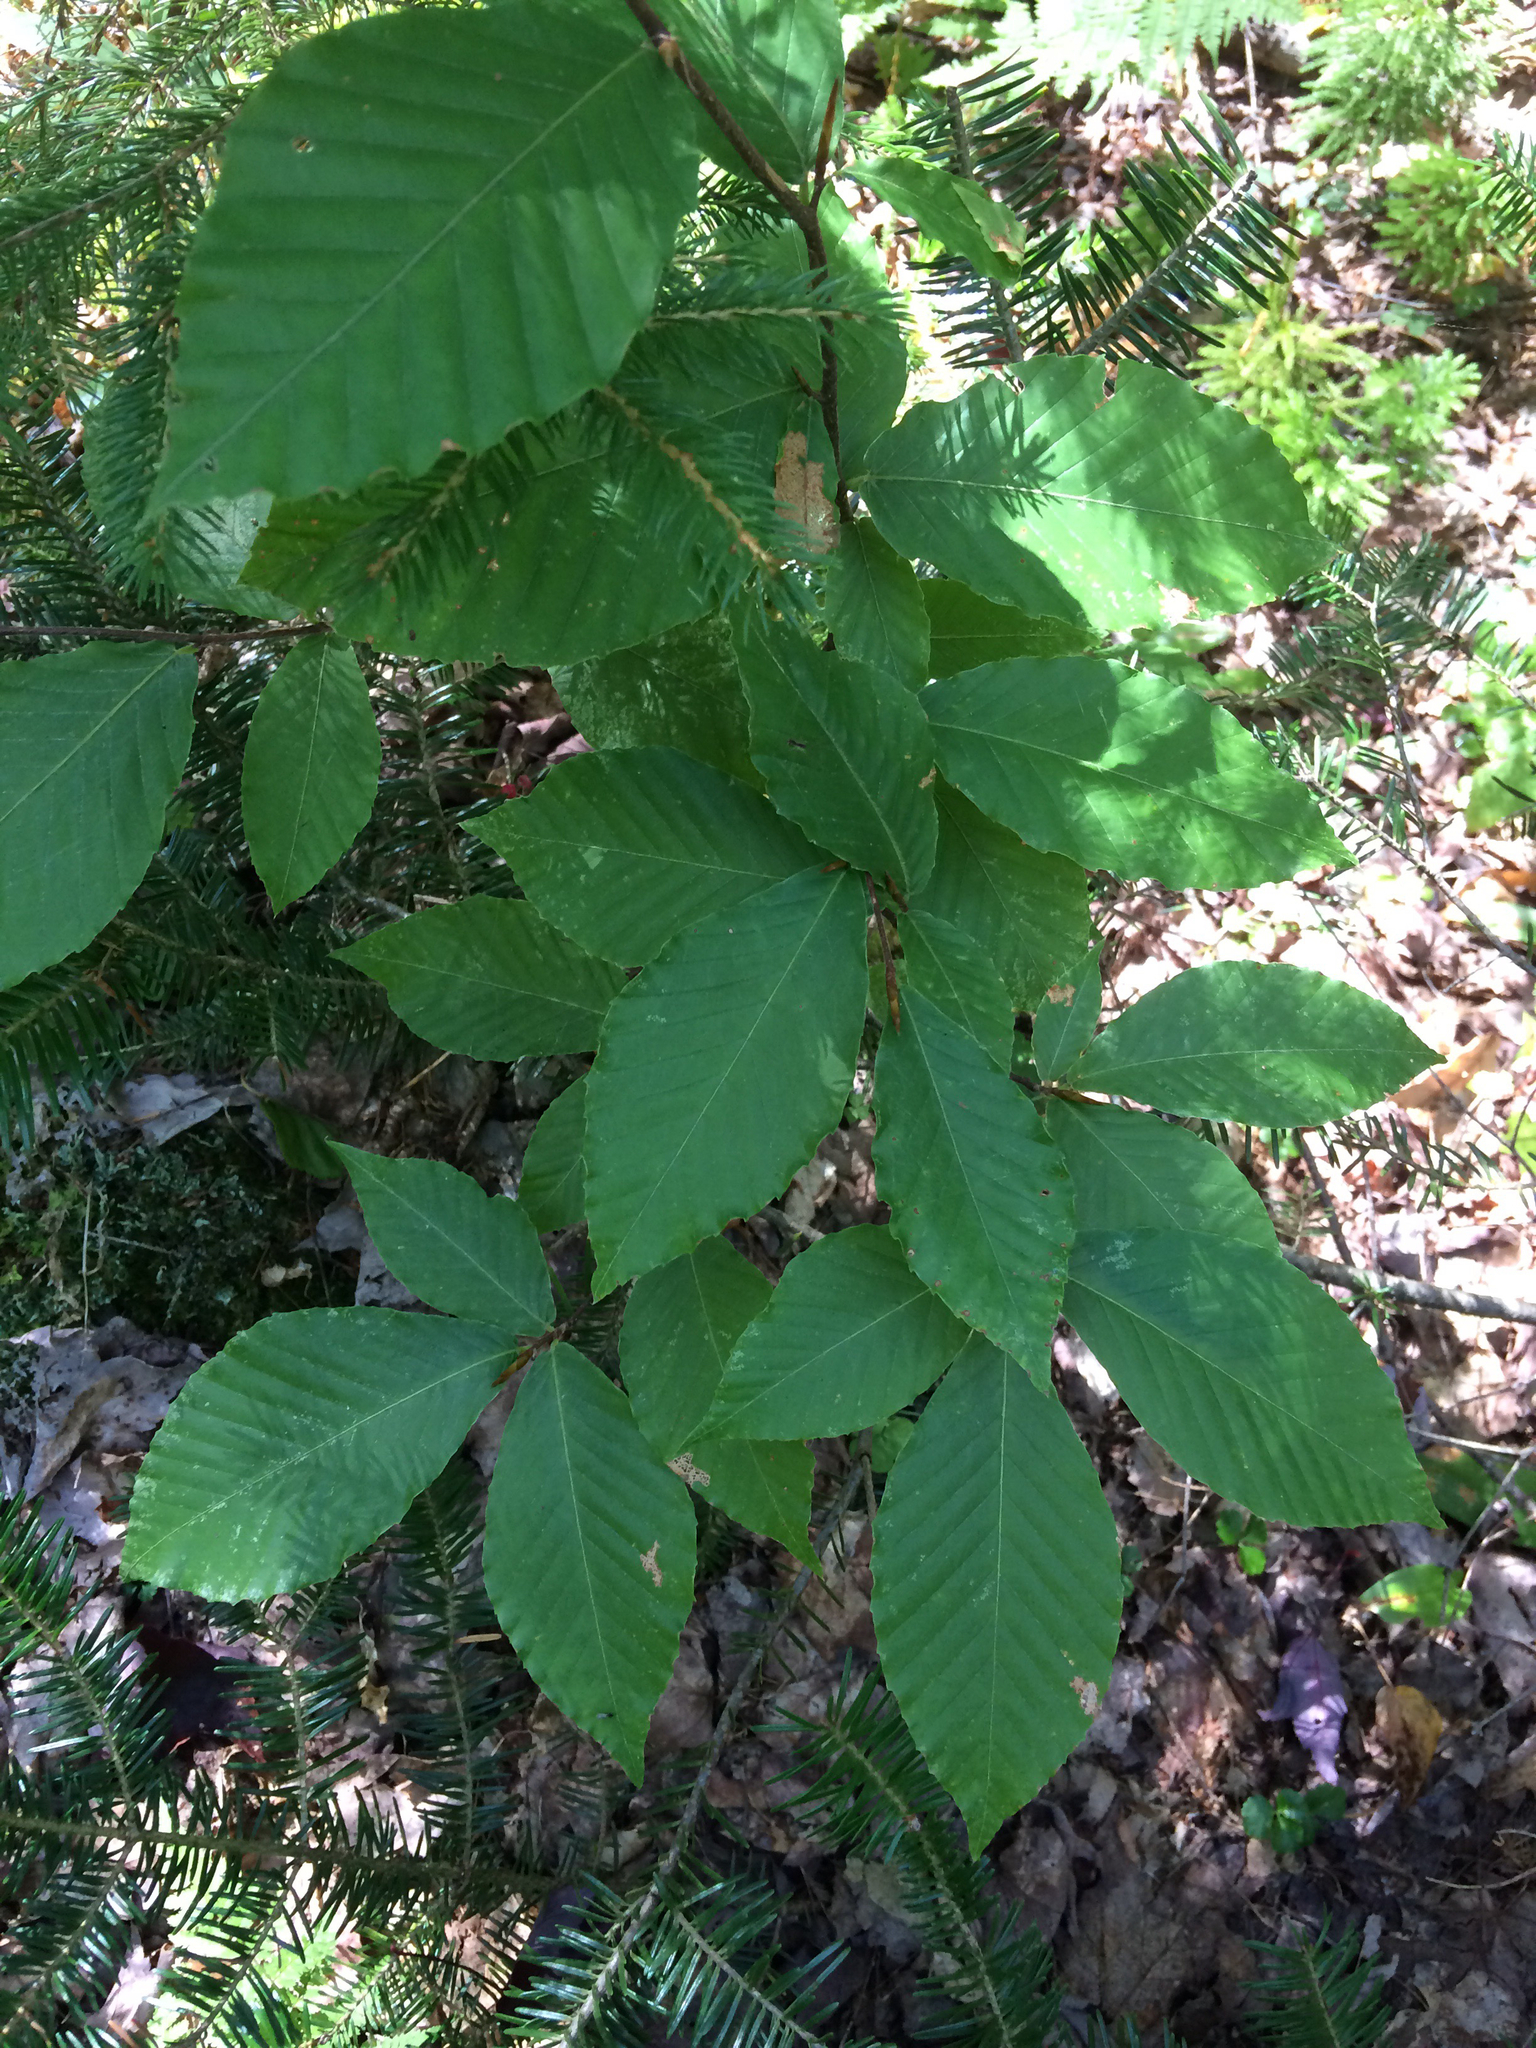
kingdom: Plantae
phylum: Tracheophyta
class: Magnoliopsida
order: Fagales
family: Fagaceae
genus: Fagus
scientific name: Fagus grandifolia
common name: American beech
